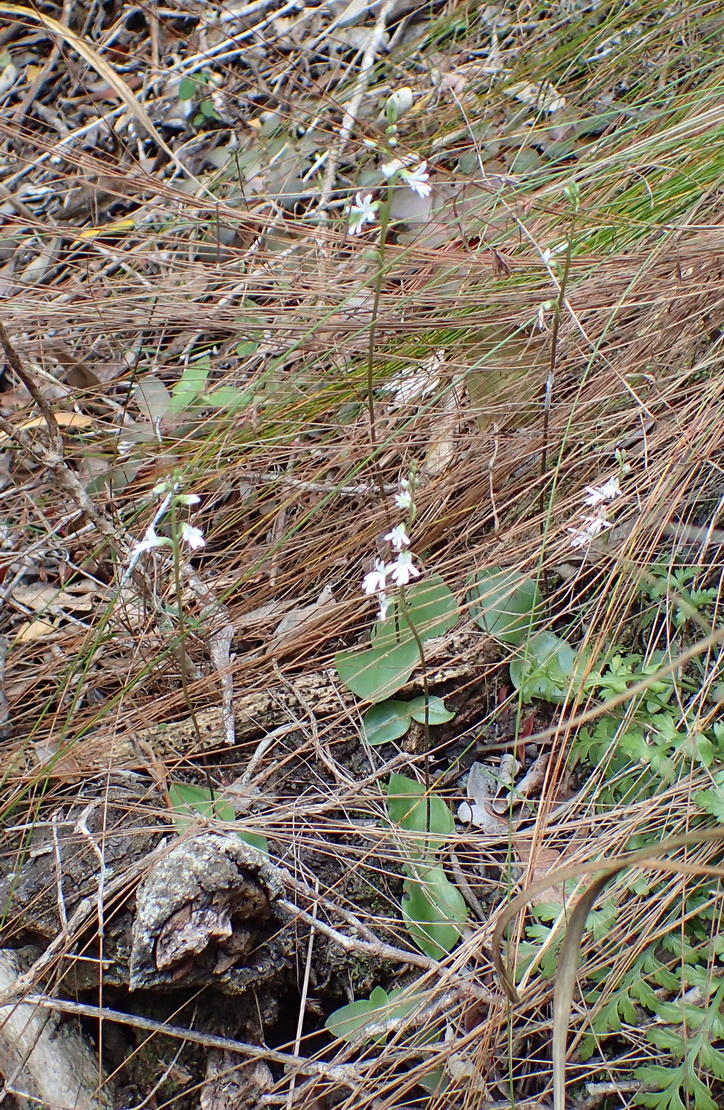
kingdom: Plantae
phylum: Tracheophyta
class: Liliopsida
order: Asparagales
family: Orchidaceae
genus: Holothrix
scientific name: Holothrix parviflora
